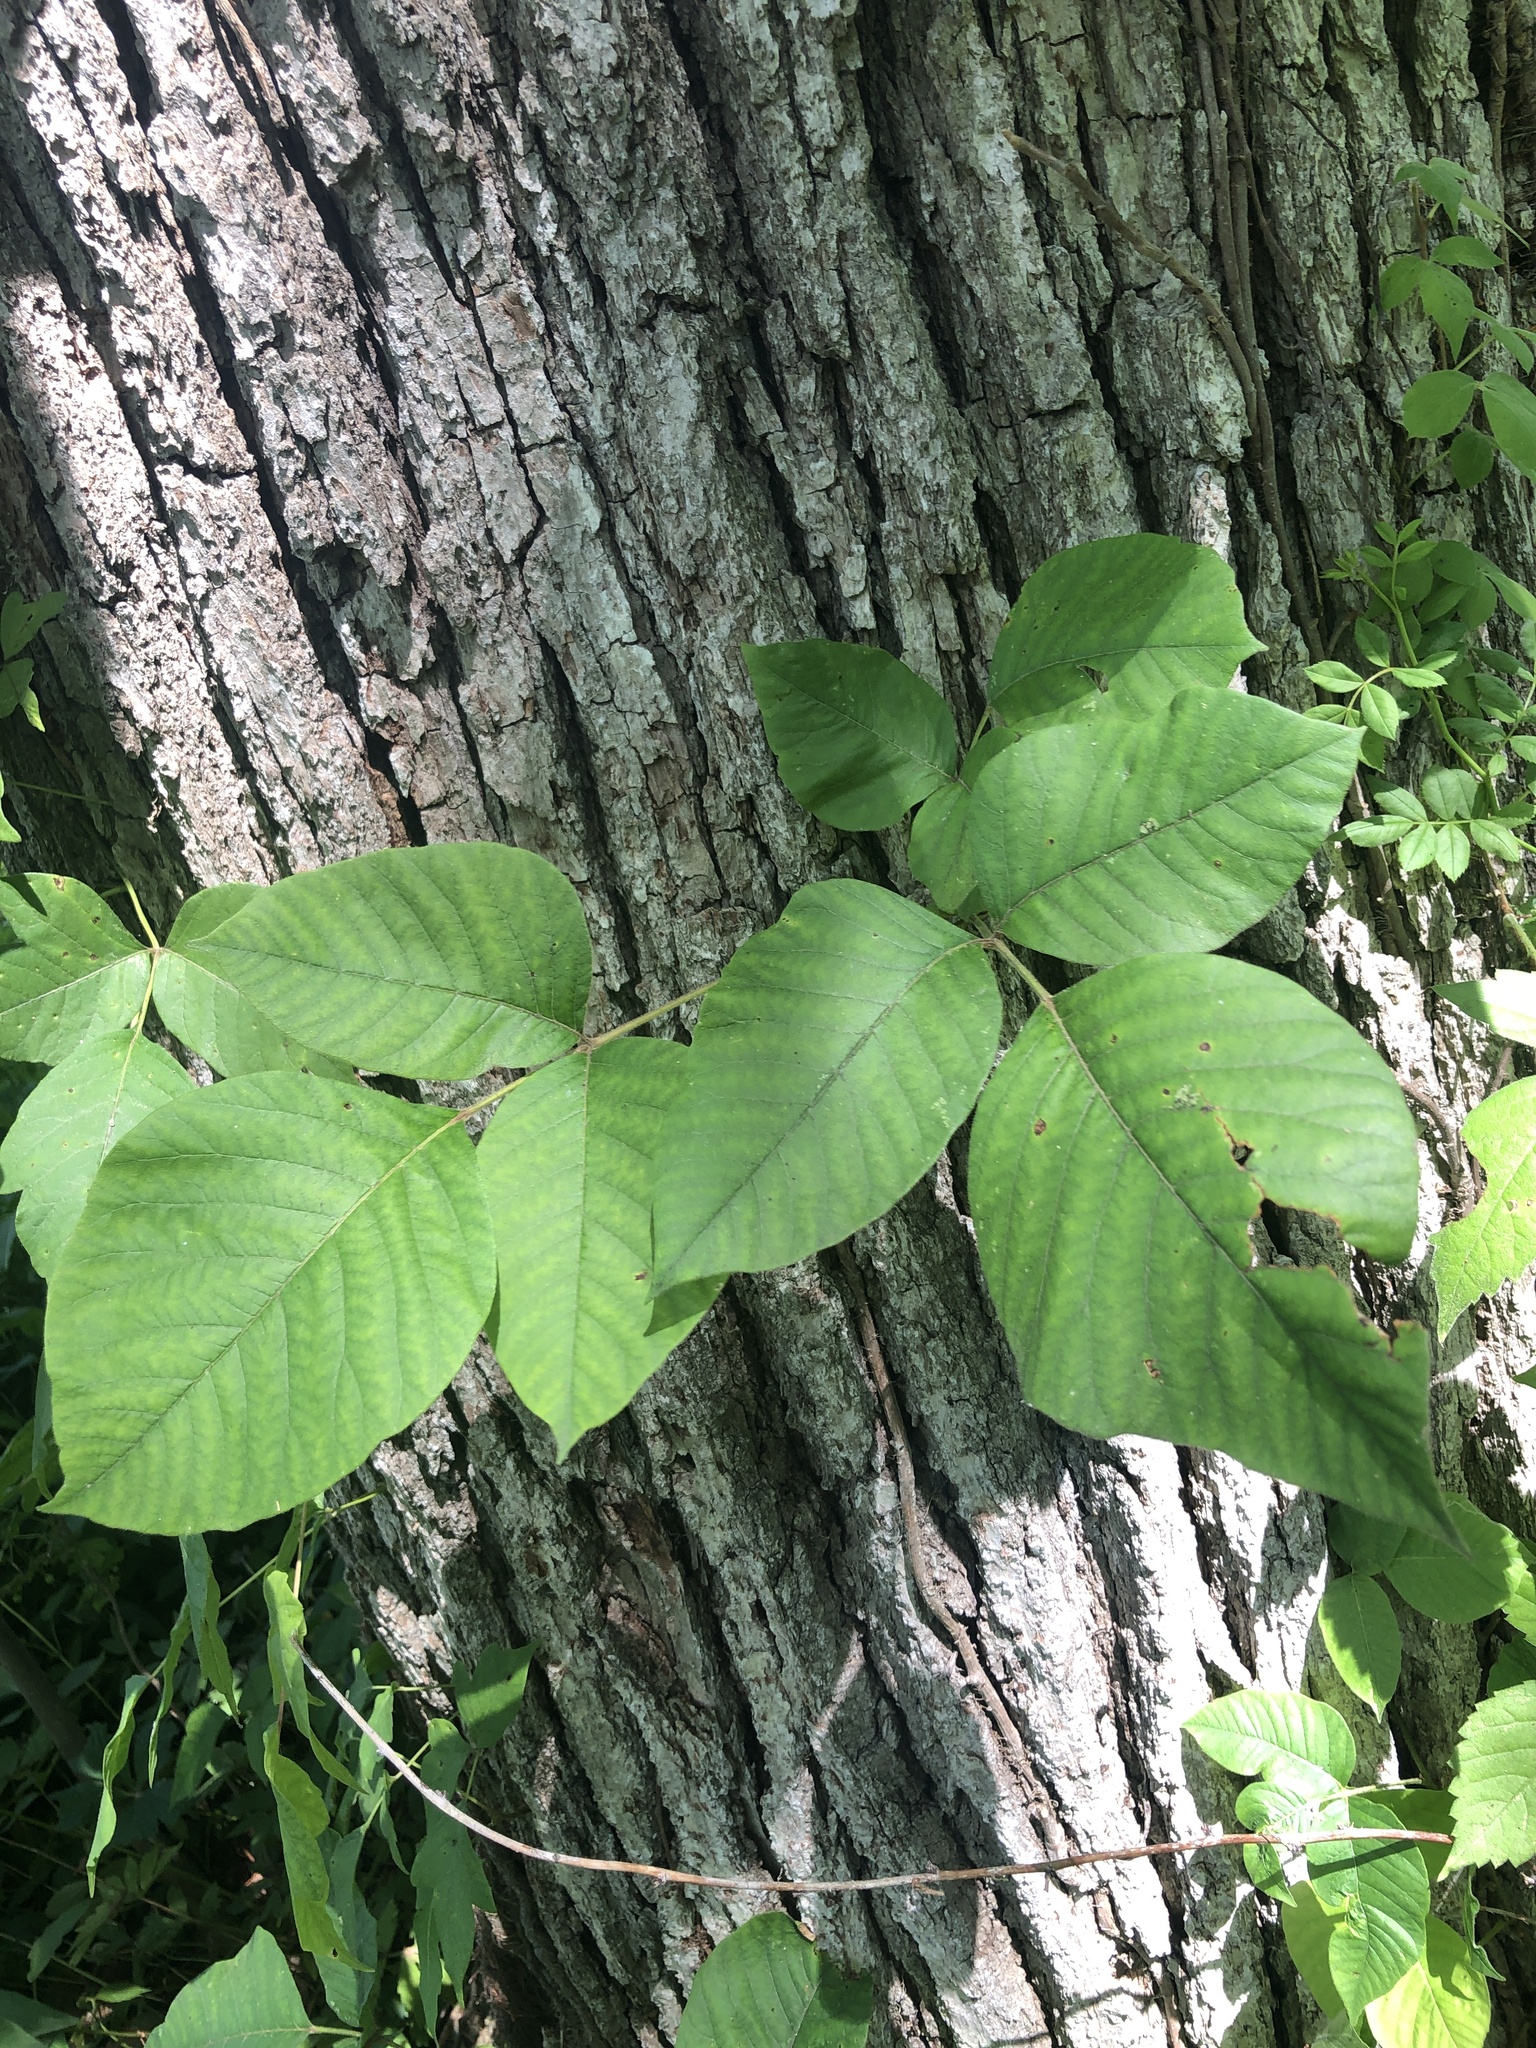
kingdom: Plantae
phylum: Tracheophyta
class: Magnoliopsida
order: Sapindales
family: Anacardiaceae
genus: Toxicodendron
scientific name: Toxicodendron radicans
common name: Poison ivy
